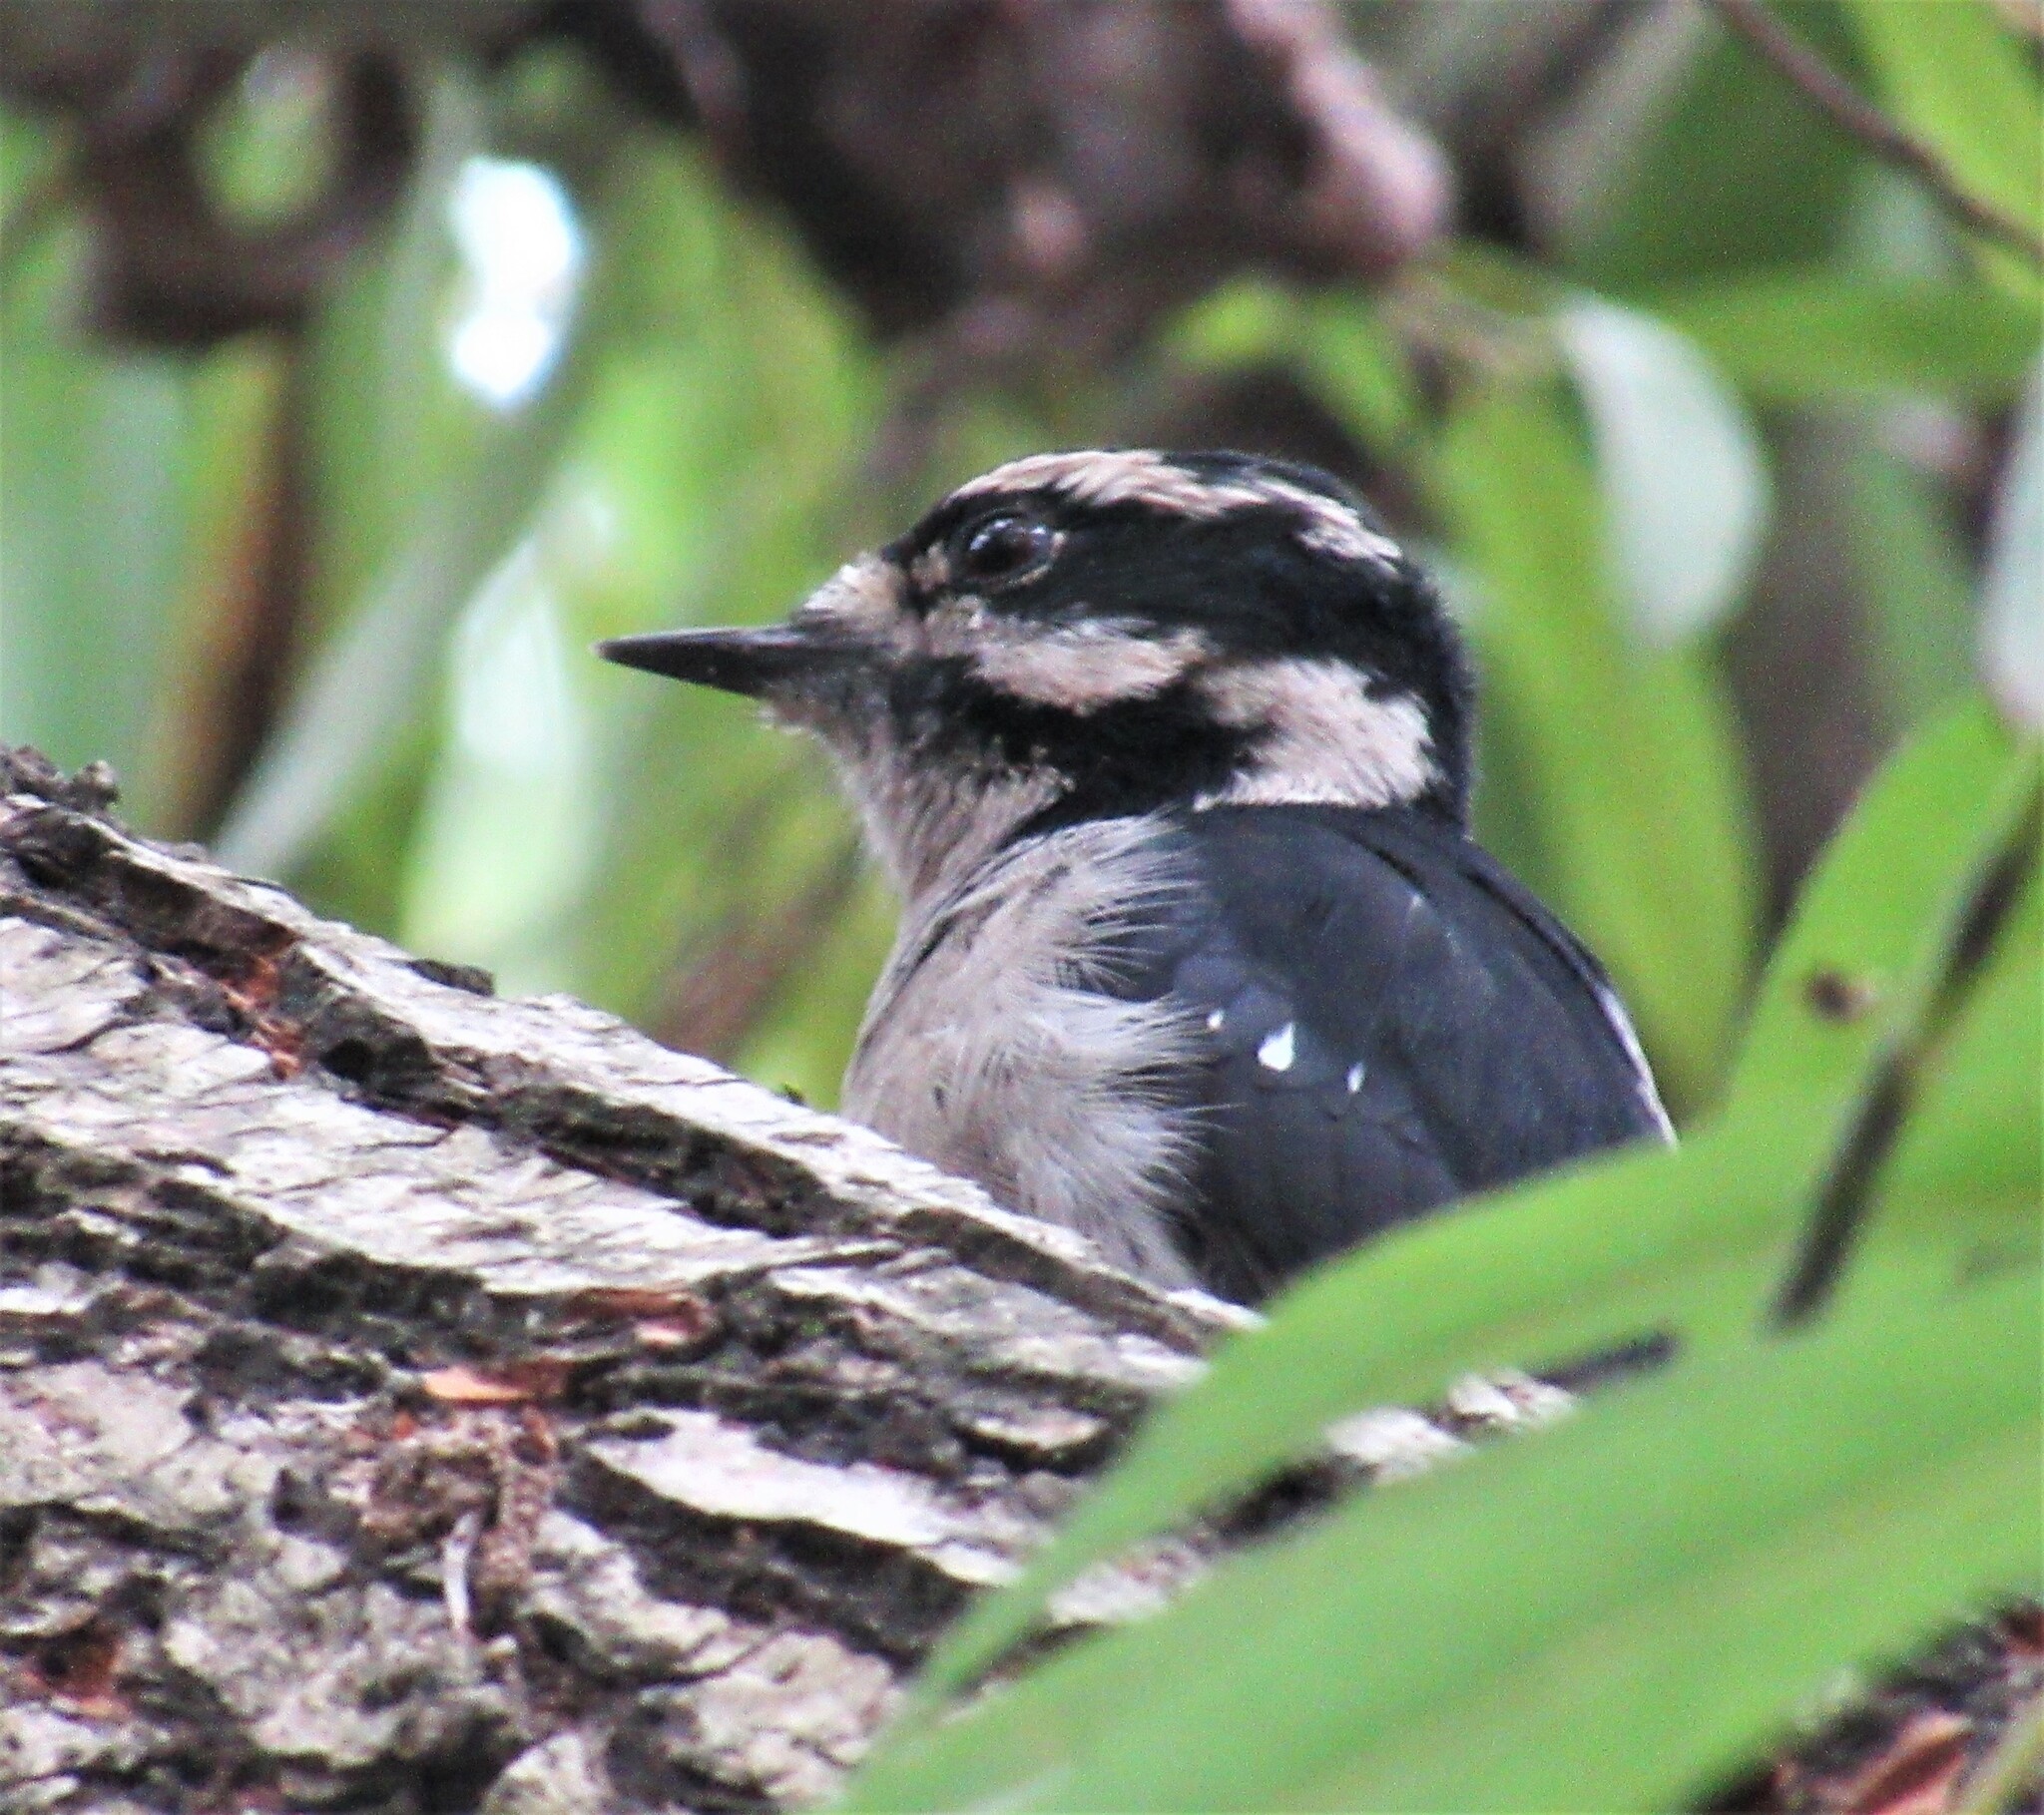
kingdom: Animalia
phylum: Chordata
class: Aves
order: Piciformes
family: Picidae
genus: Dryobates
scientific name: Dryobates pubescens
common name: Downy woodpecker
